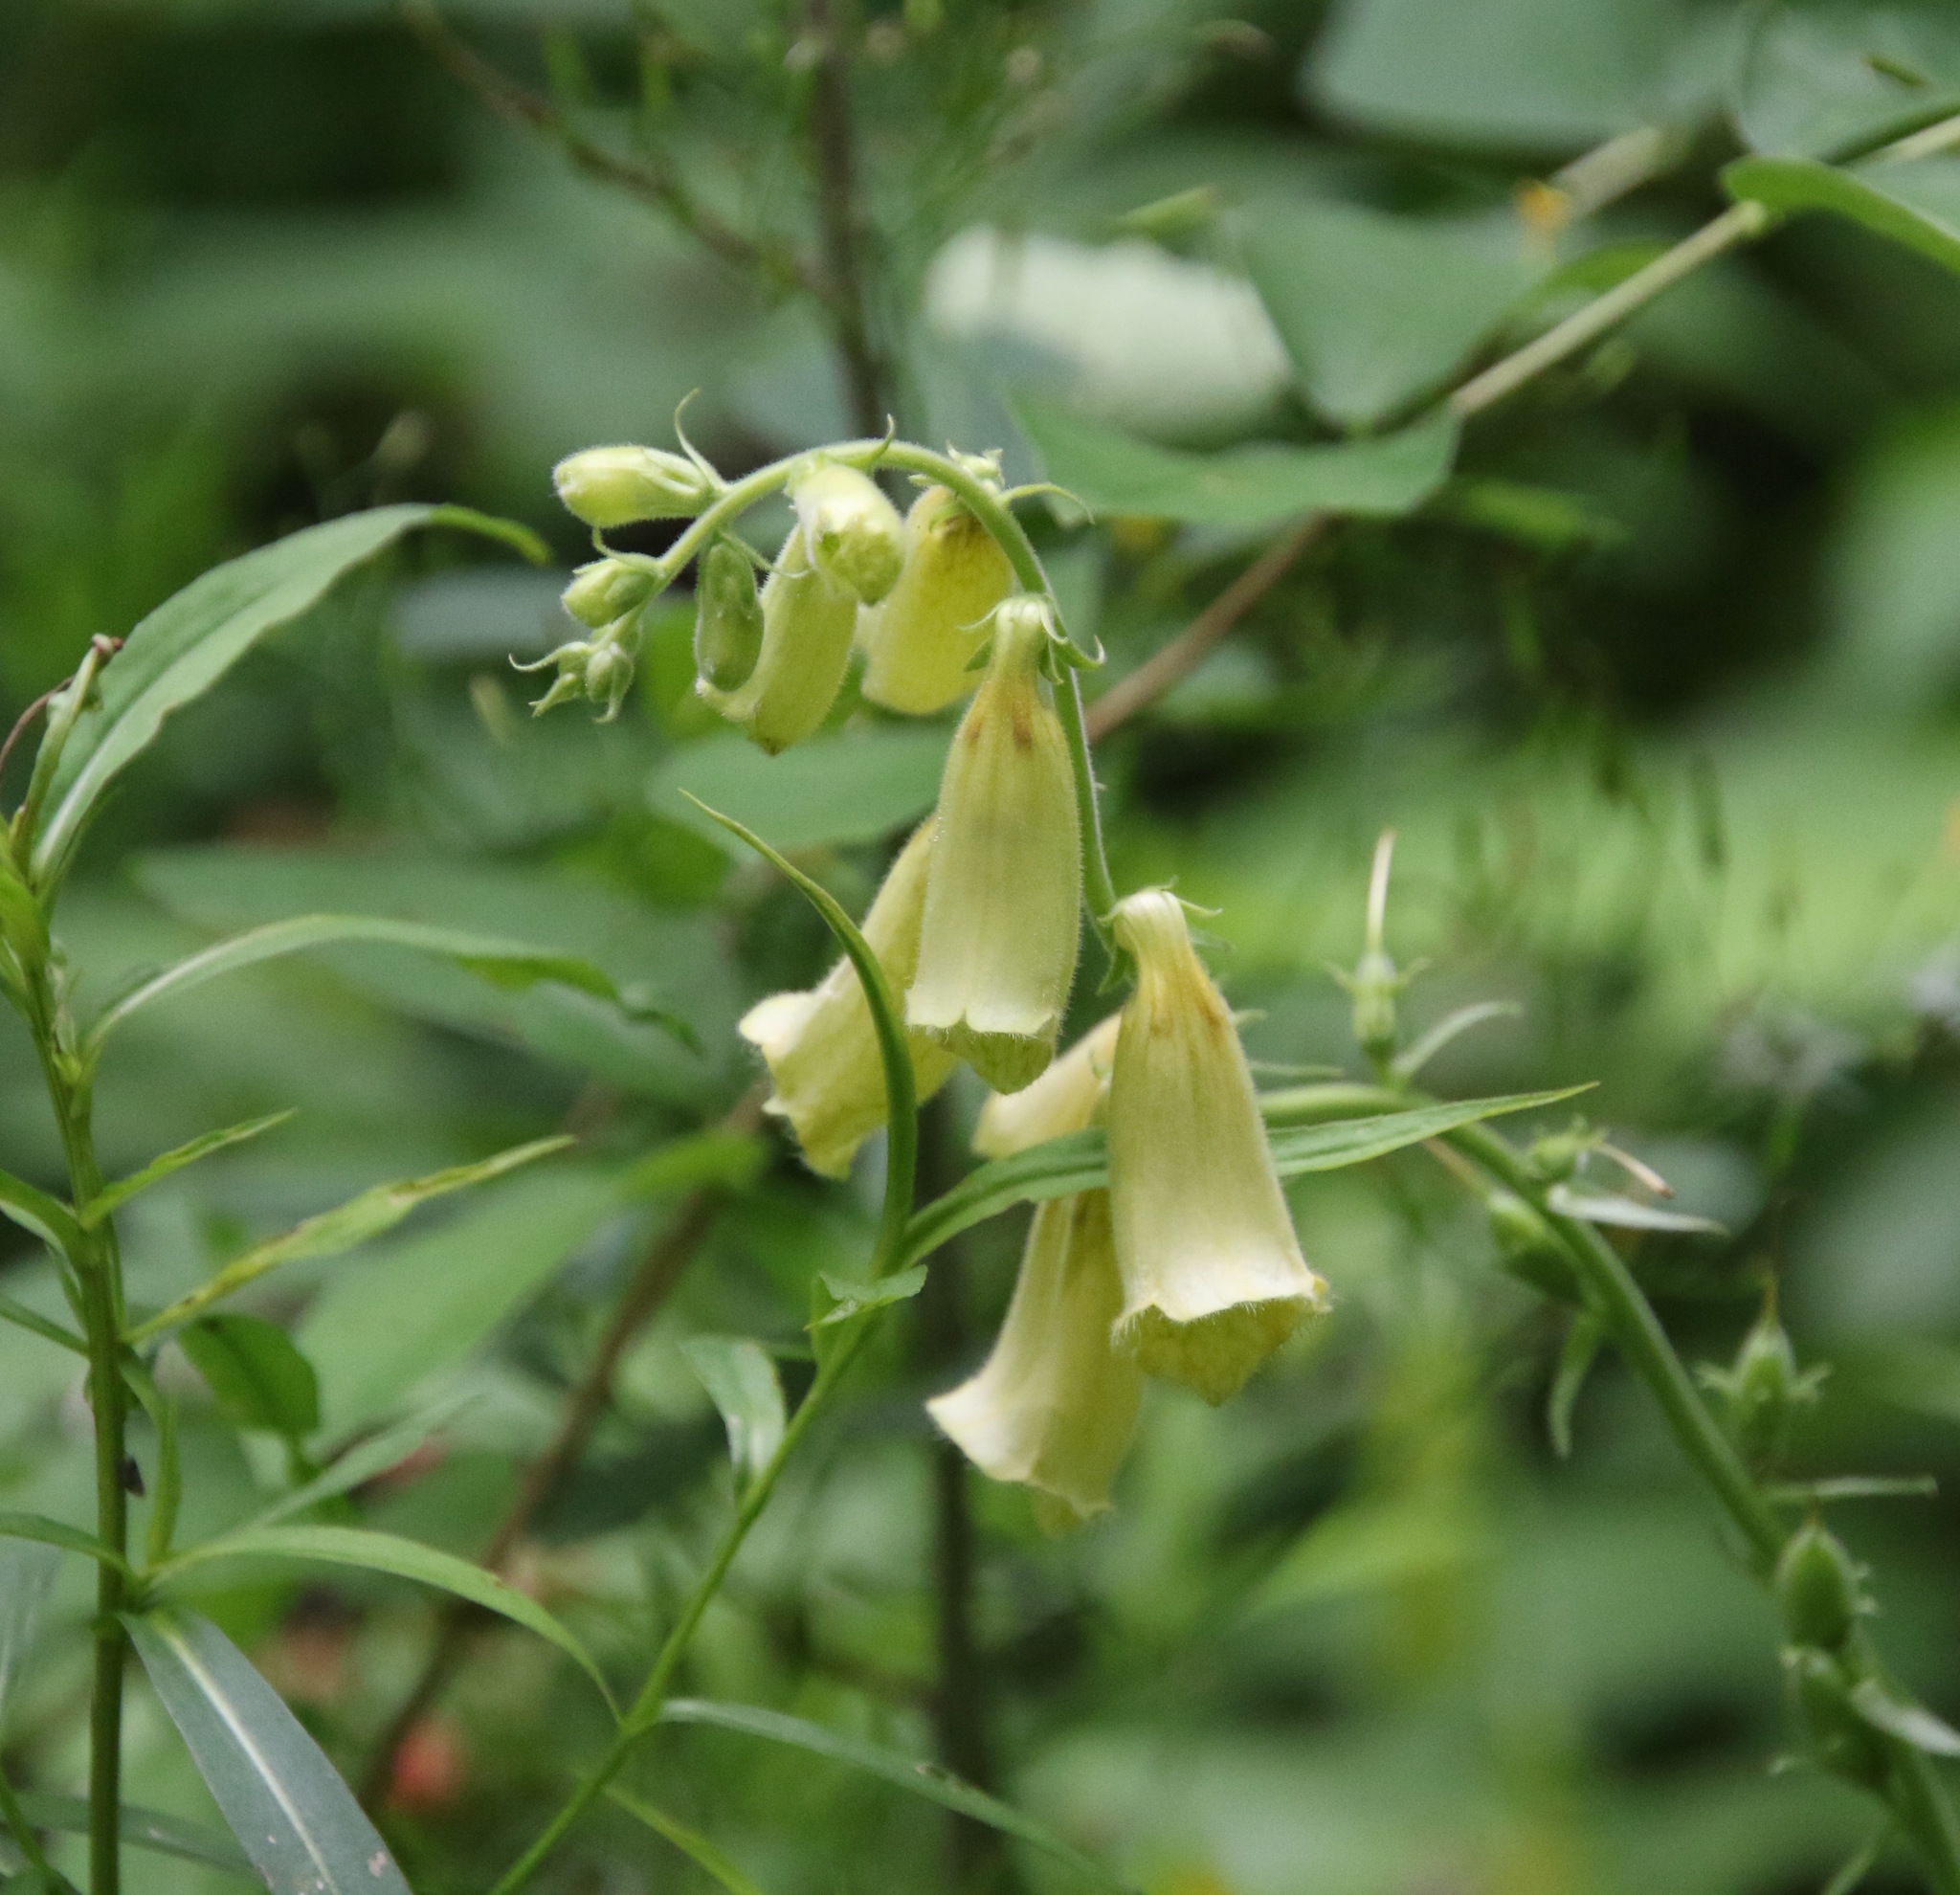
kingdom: Plantae
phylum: Tracheophyta
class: Magnoliopsida
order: Lamiales
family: Plantaginaceae
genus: Digitalis
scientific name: Digitalis grandiflora
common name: Yellow foxglove
